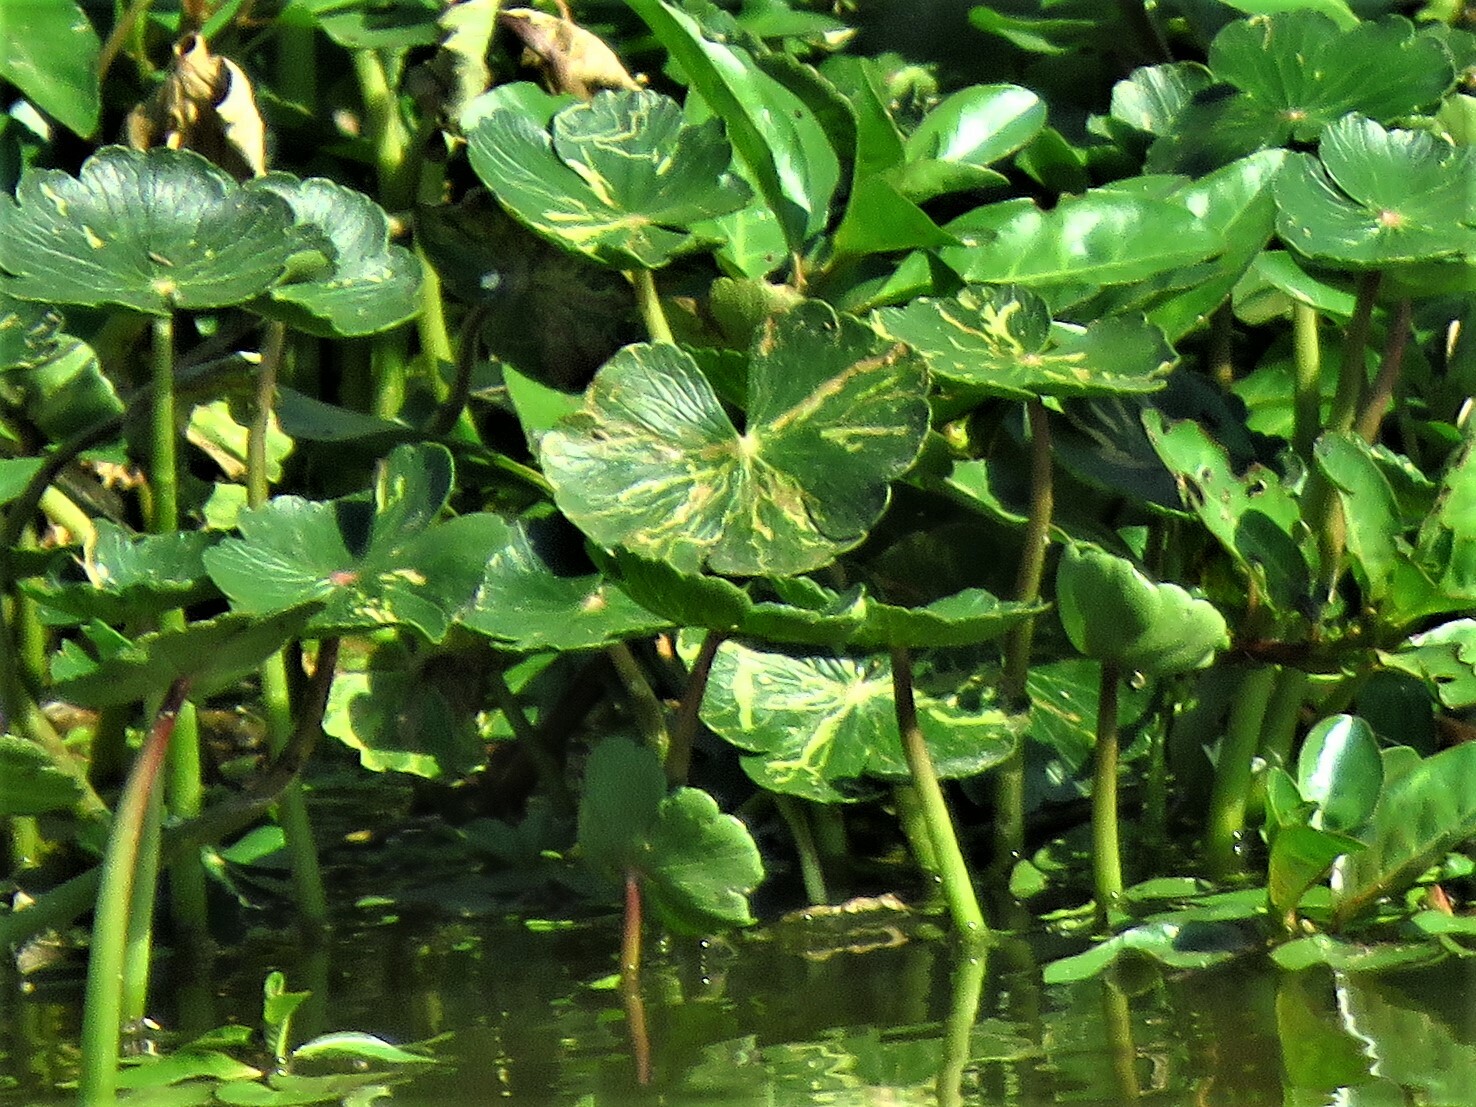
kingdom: Plantae
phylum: Tracheophyta
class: Magnoliopsida
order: Apiales
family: Araliaceae
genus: Hydrocotyle
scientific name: Hydrocotyle ranunculoides
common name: Floating pennywort
